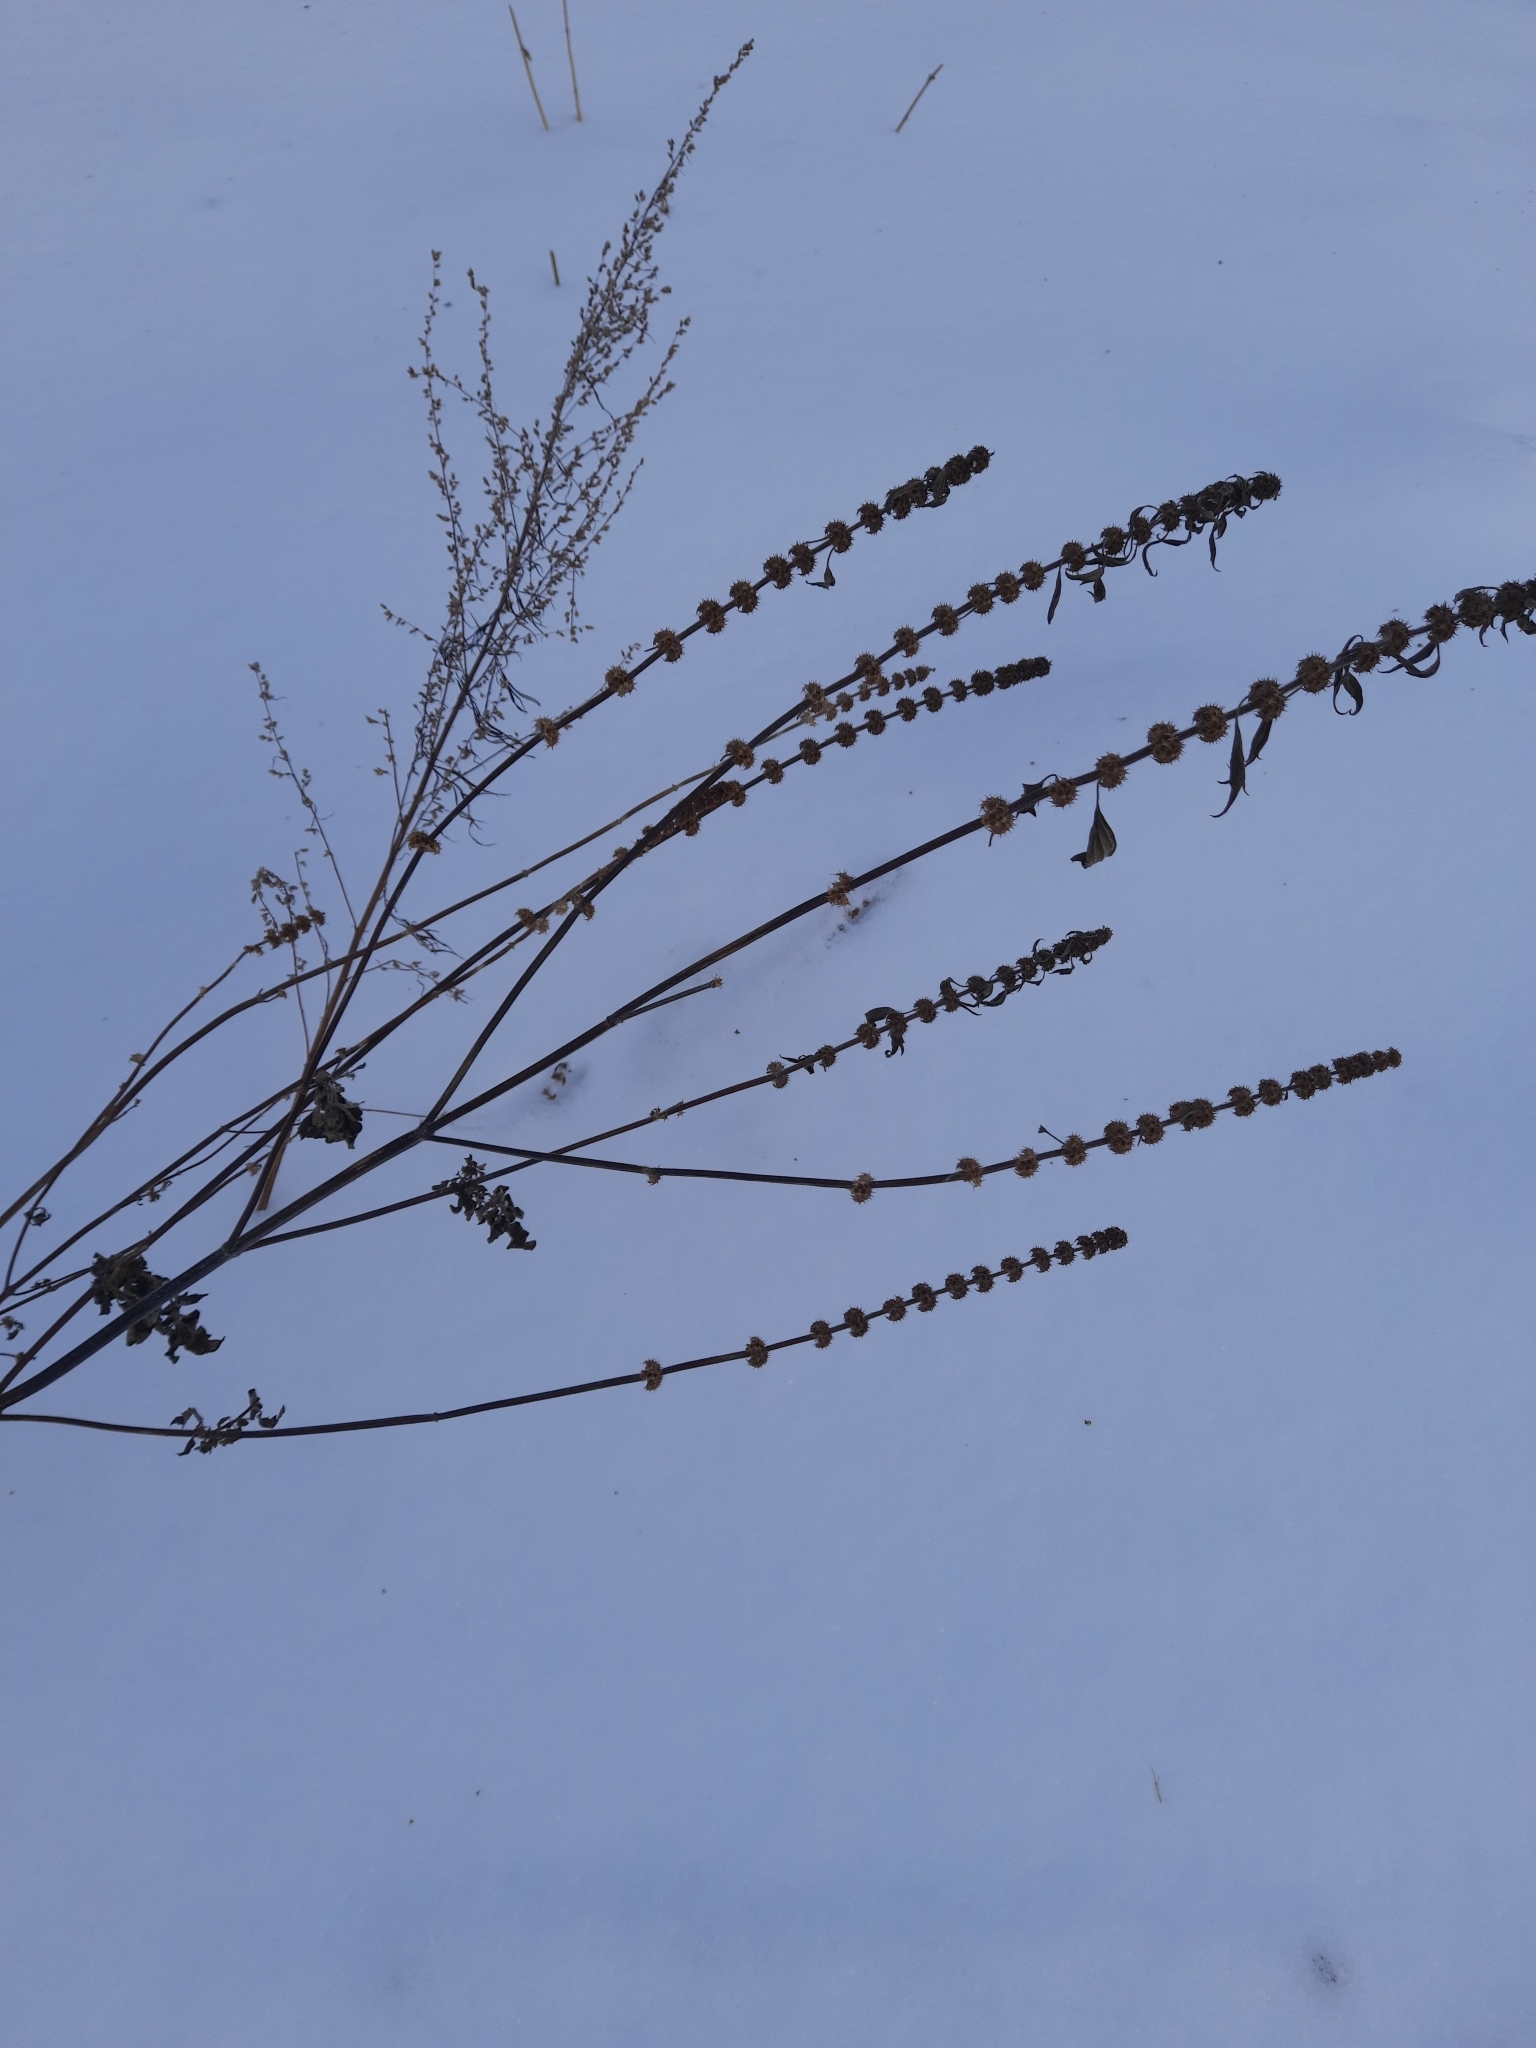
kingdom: Plantae
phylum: Tracheophyta
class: Magnoliopsida
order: Lamiales
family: Lamiaceae
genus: Leonurus
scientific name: Leonurus quinquelobatus
